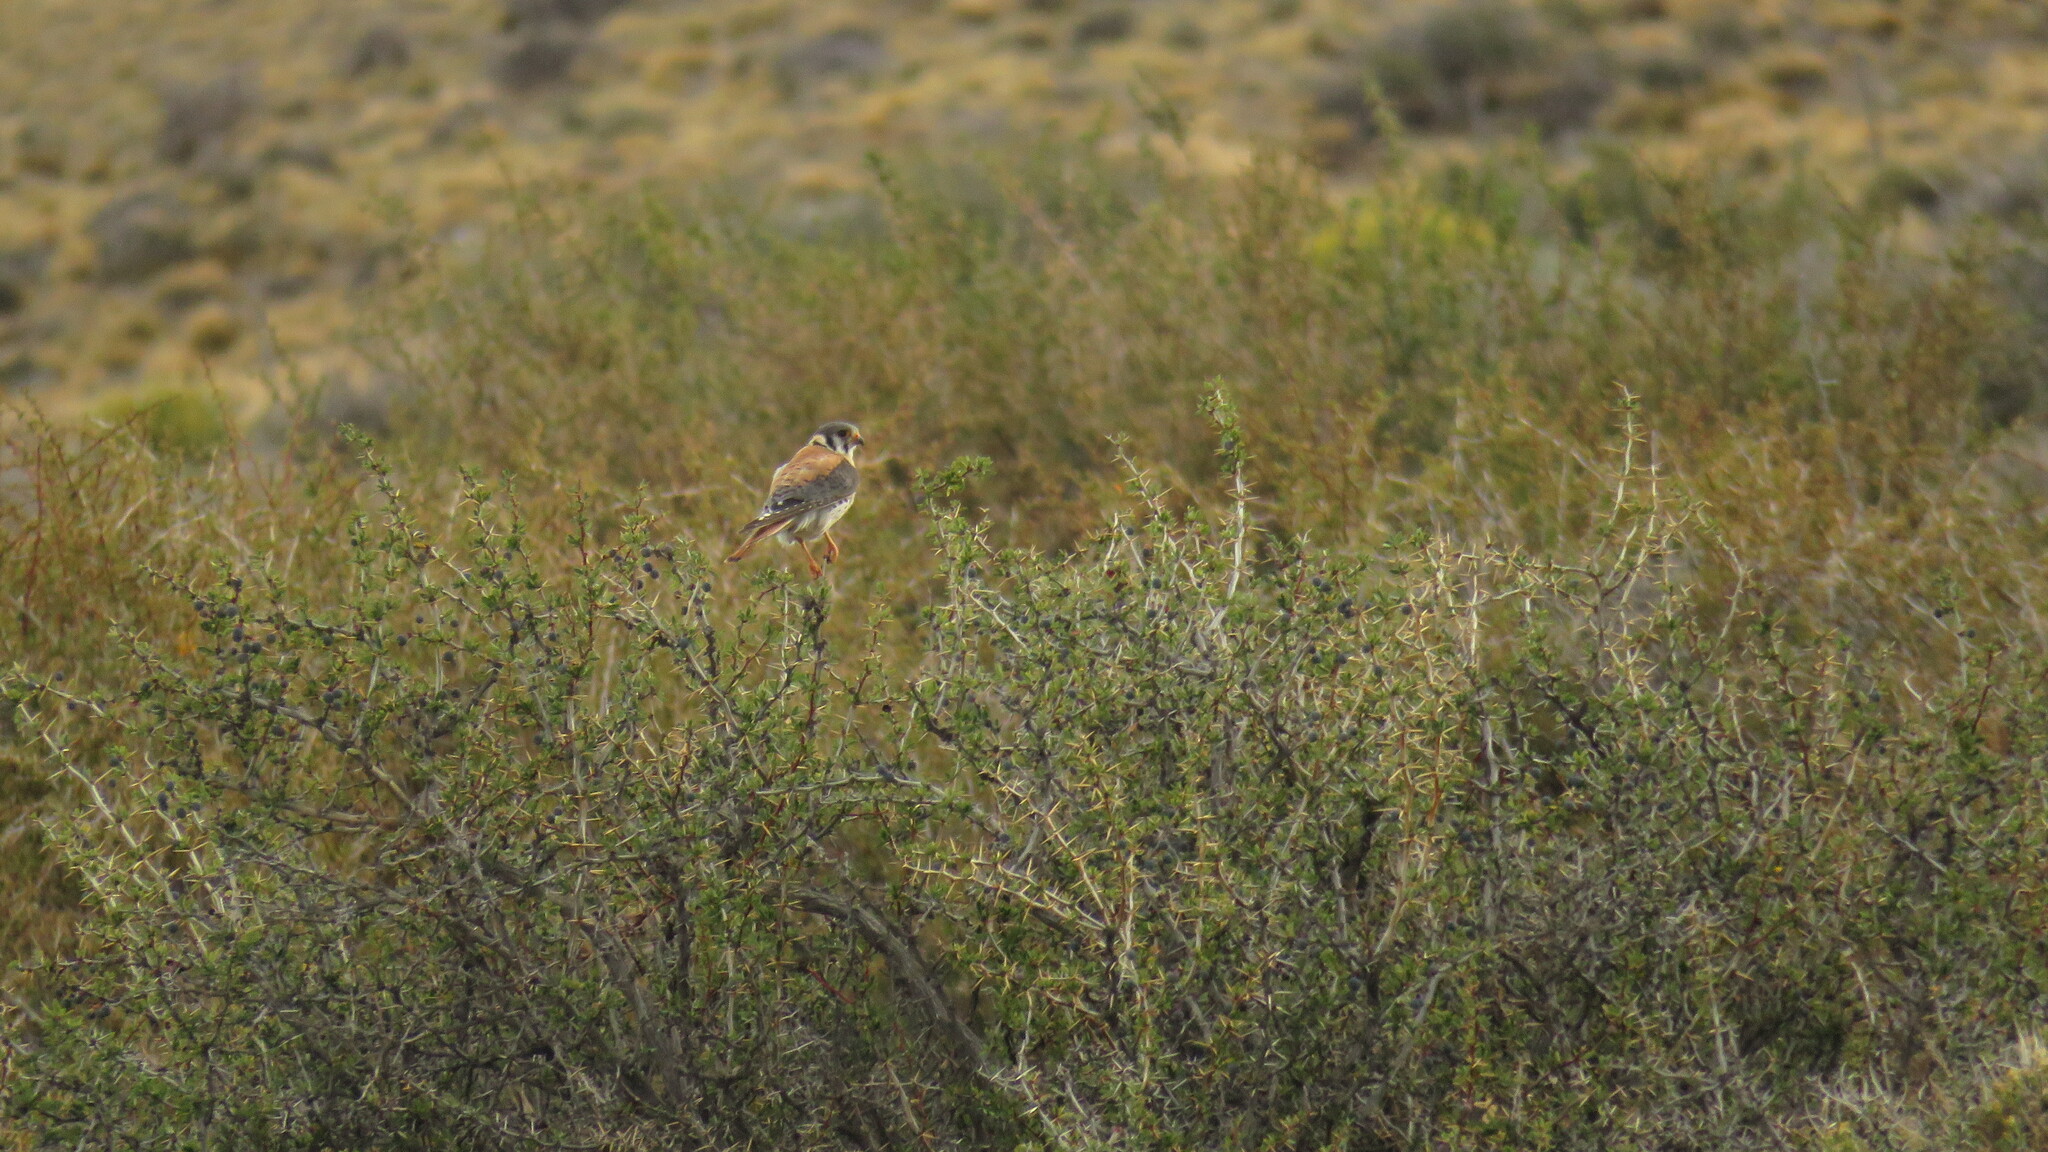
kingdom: Animalia
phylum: Chordata
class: Aves
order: Falconiformes
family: Falconidae
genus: Falco
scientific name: Falco sparverius
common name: American kestrel
